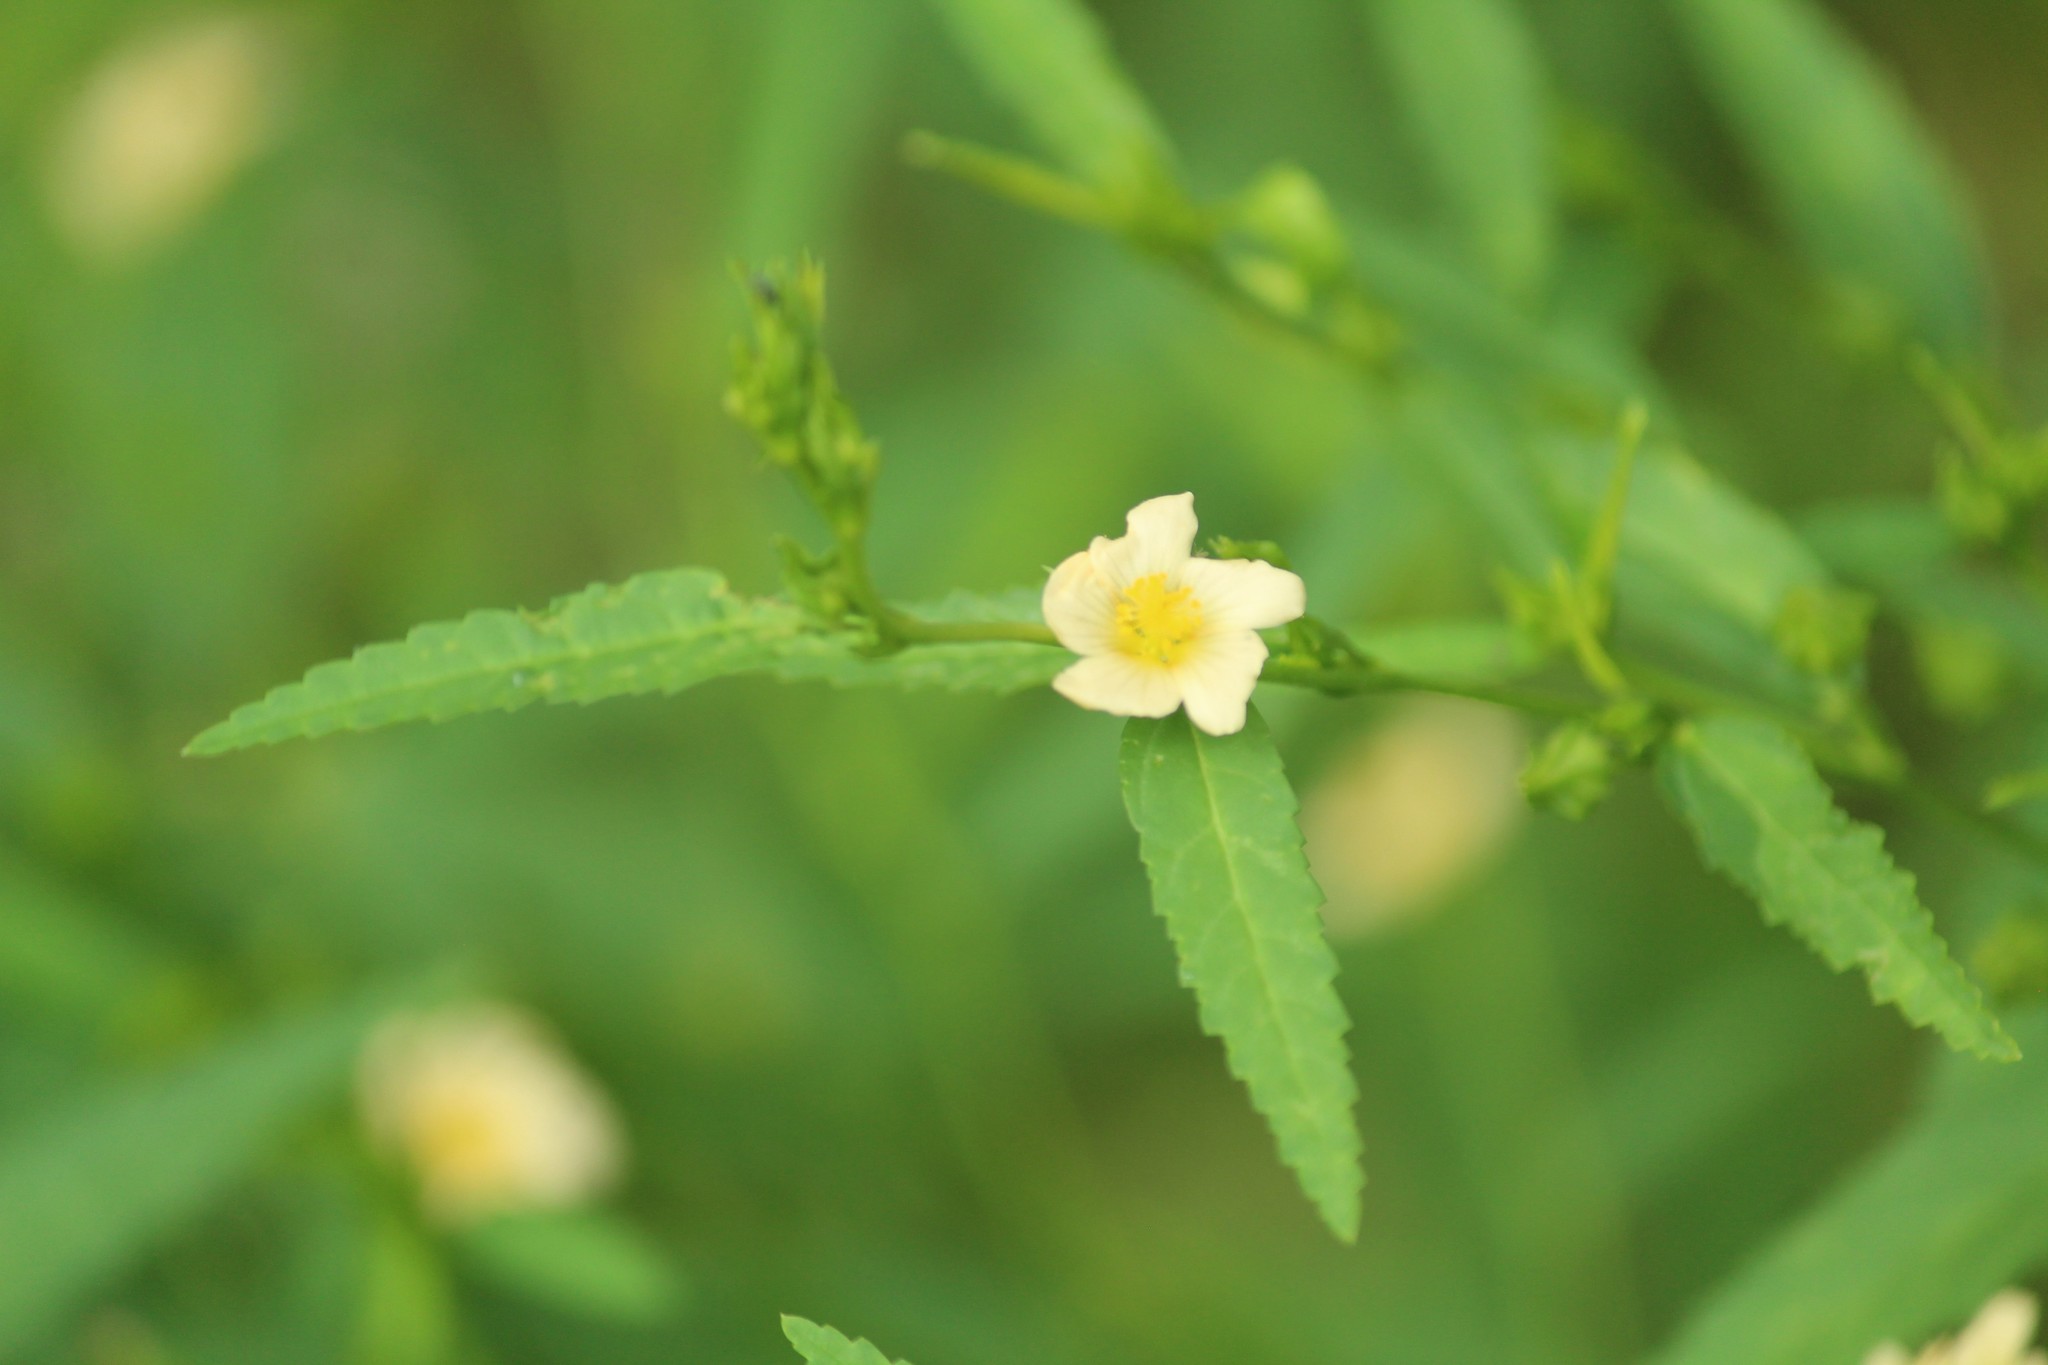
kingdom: Plantae
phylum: Tracheophyta
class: Magnoliopsida
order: Malvales
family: Malvaceae
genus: Sida
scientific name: Sida acuta
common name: Common wireweed
